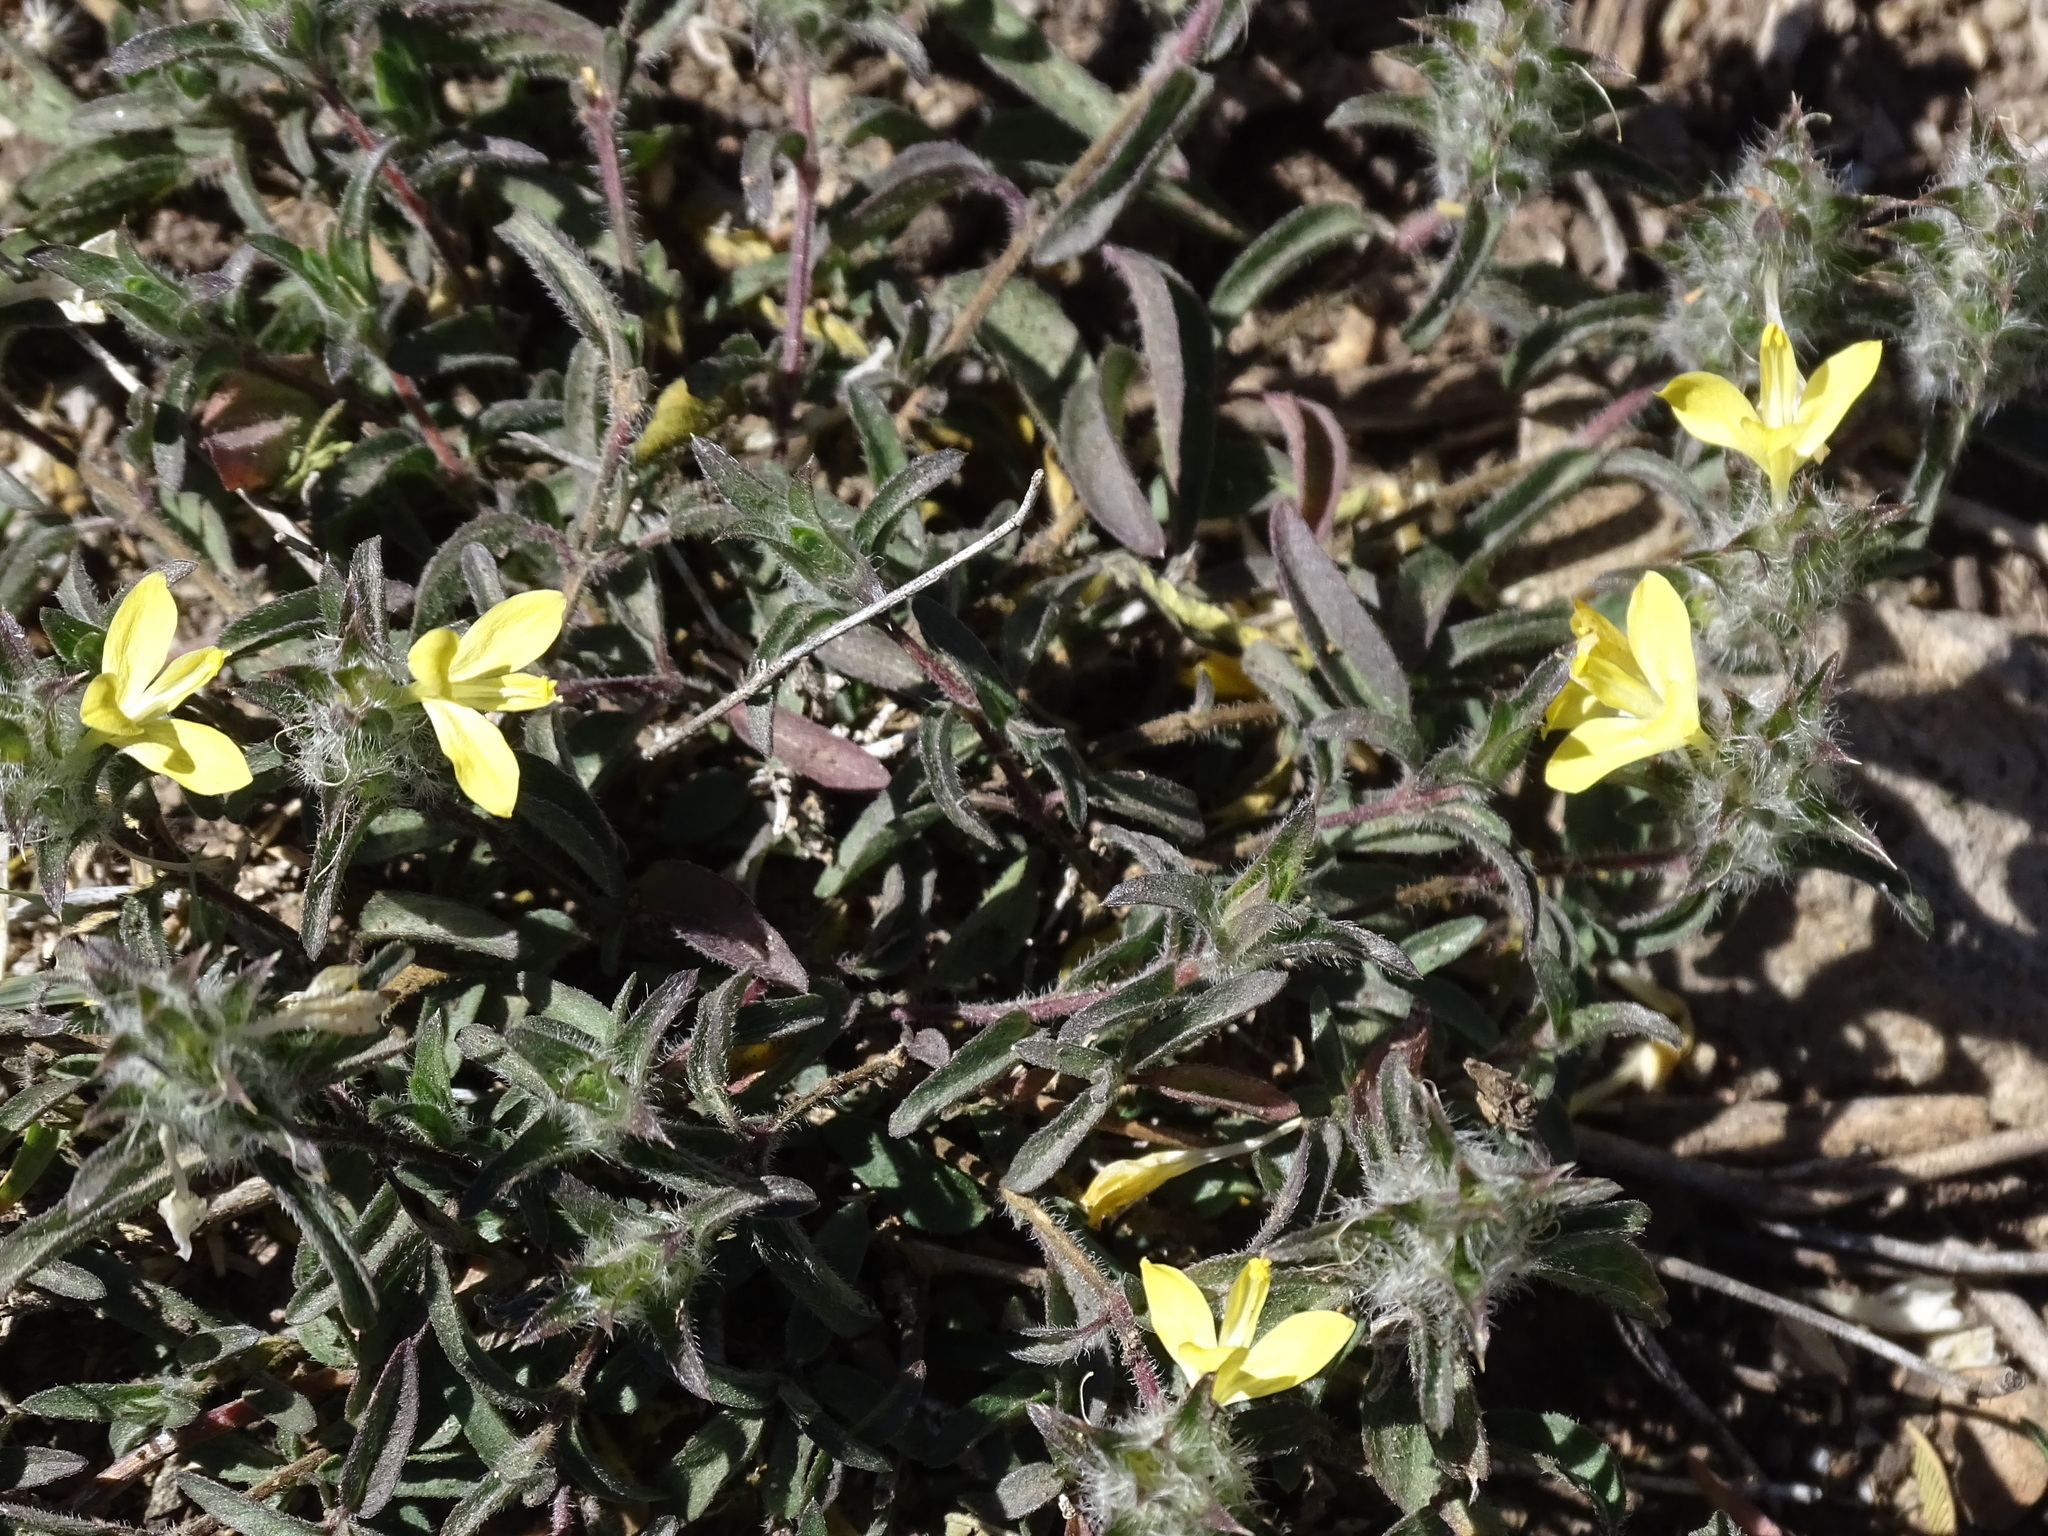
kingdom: Plantae
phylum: Tracheophyta
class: Magnoliopsida
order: Lamiales
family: Acanthaceae
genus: Tetramerium
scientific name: Tetramerium nervosum
